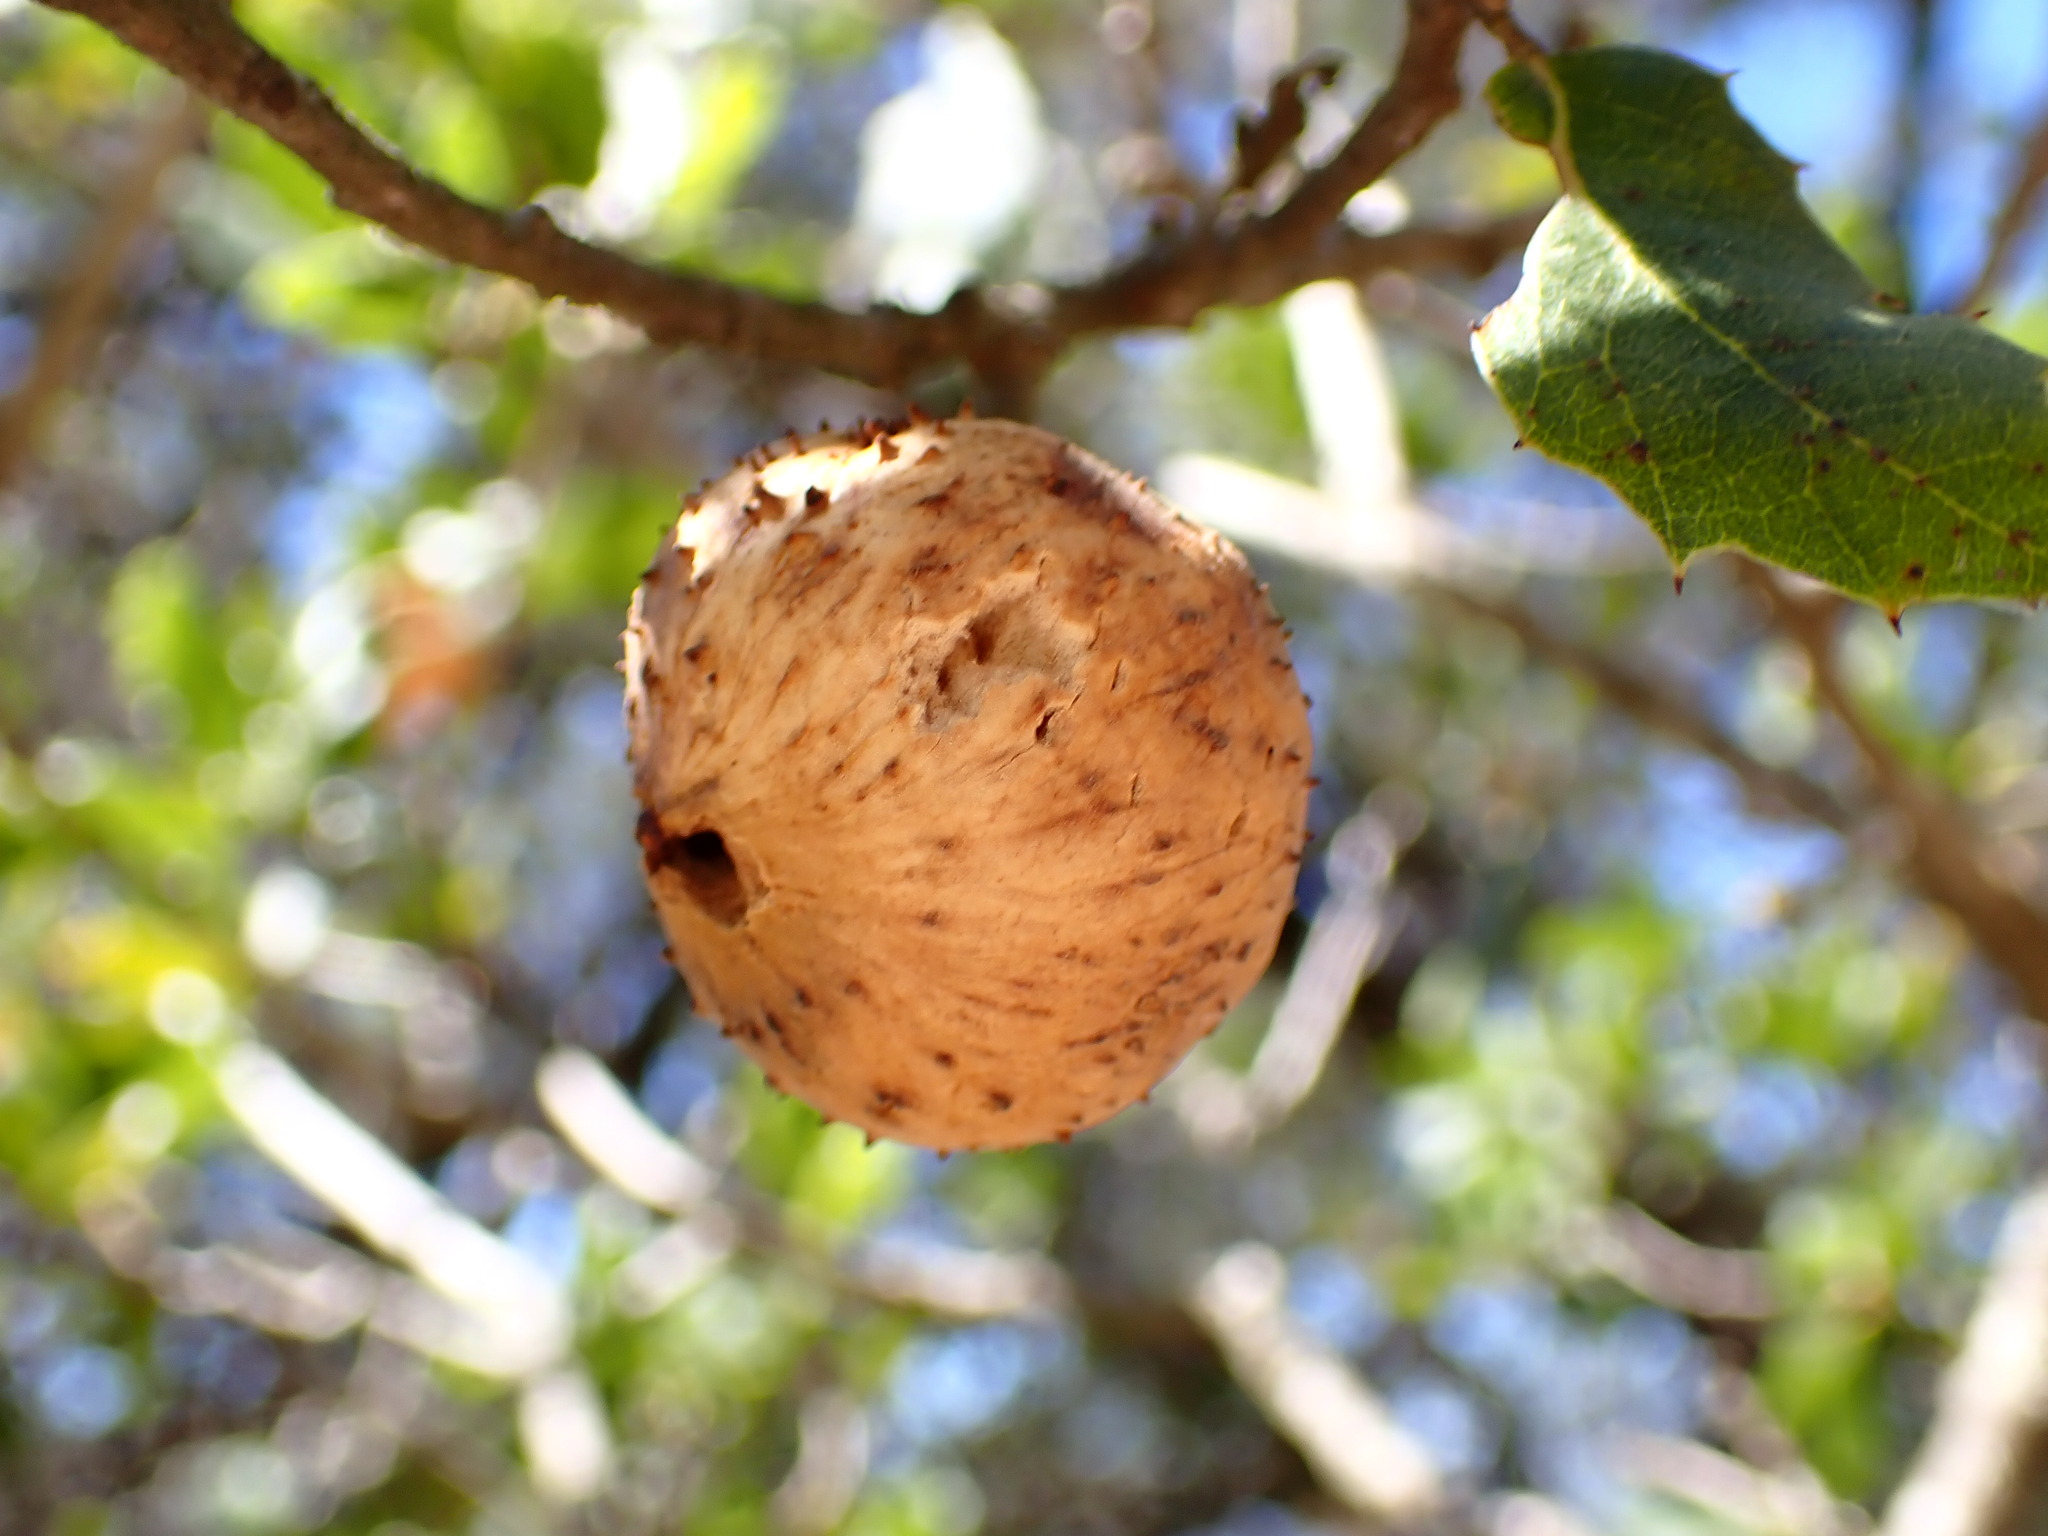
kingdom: Animalia
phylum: Arthropoda
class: Insecta
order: Hymenoptera
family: Cynipidae
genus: Amphibolips
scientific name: Amphibolips quercuspomiformis
